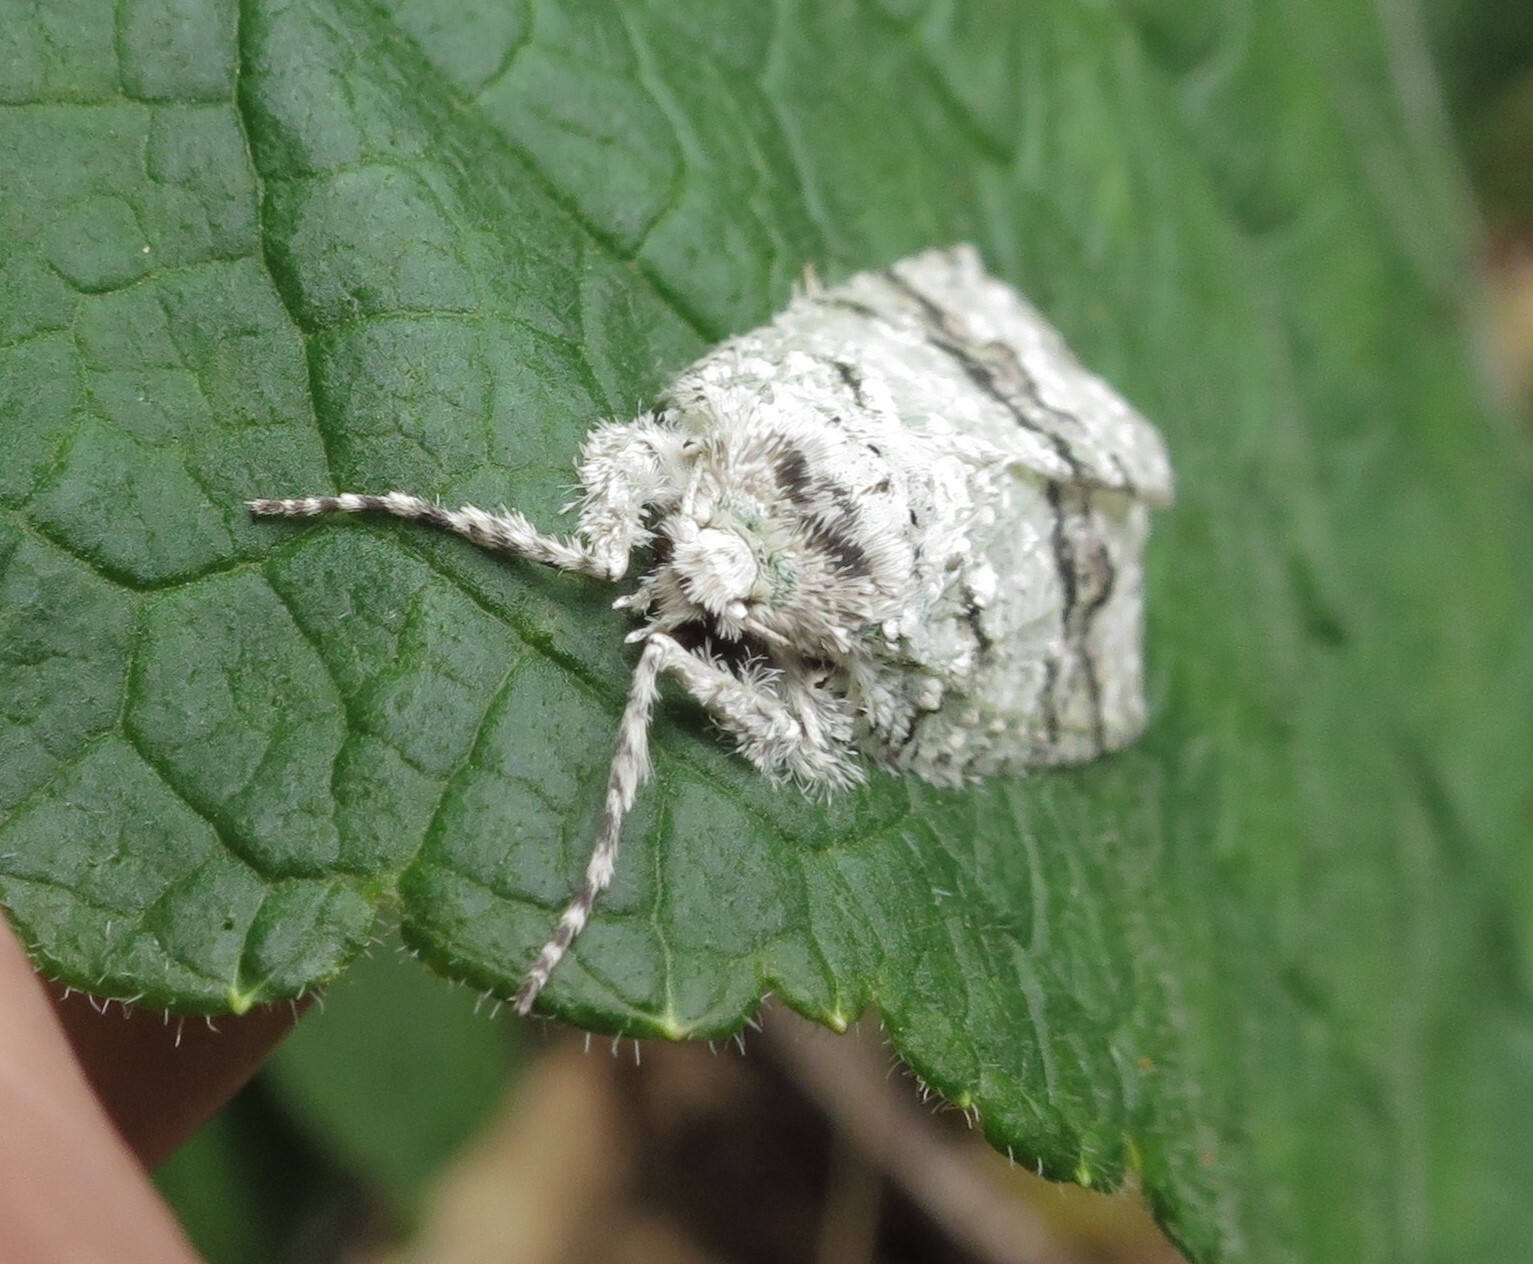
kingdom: Animalia
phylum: Arthropoda
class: Insecta
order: Lepidoptera
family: Geometridae
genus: Declana
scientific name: Declana floccosa
